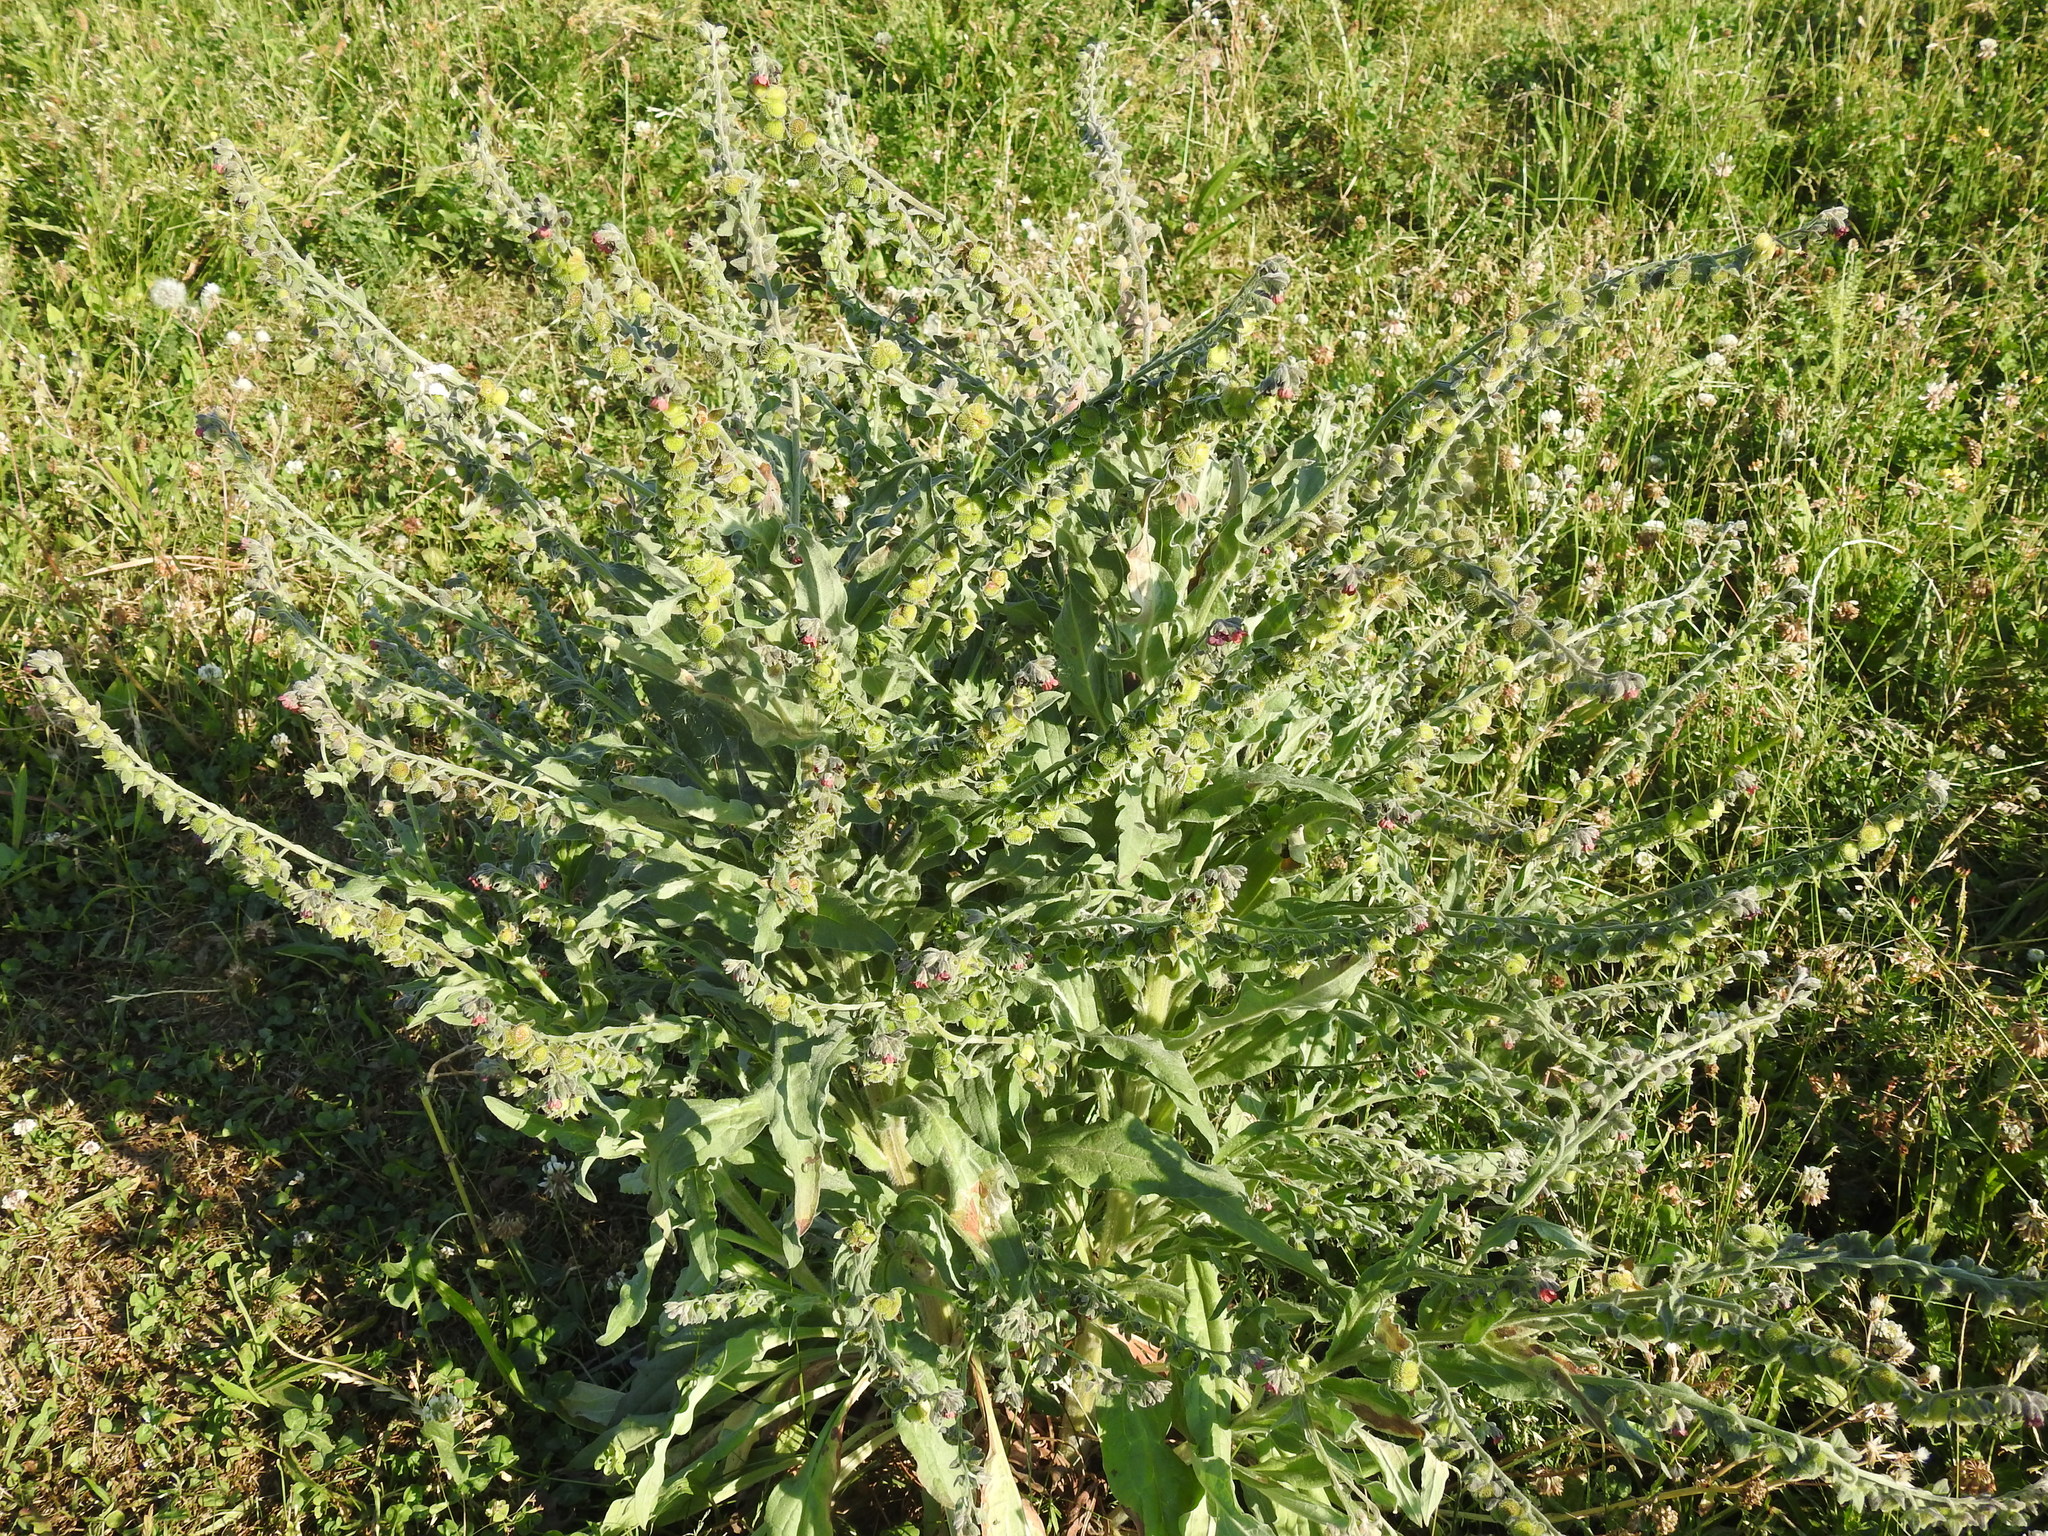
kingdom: Plantae
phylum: Tracheophyta
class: Magnoliopsida
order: Boraginales
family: Boraginaceae
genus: Cynoglossum
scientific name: Cynoglossum officinale
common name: Hound's-tongue
